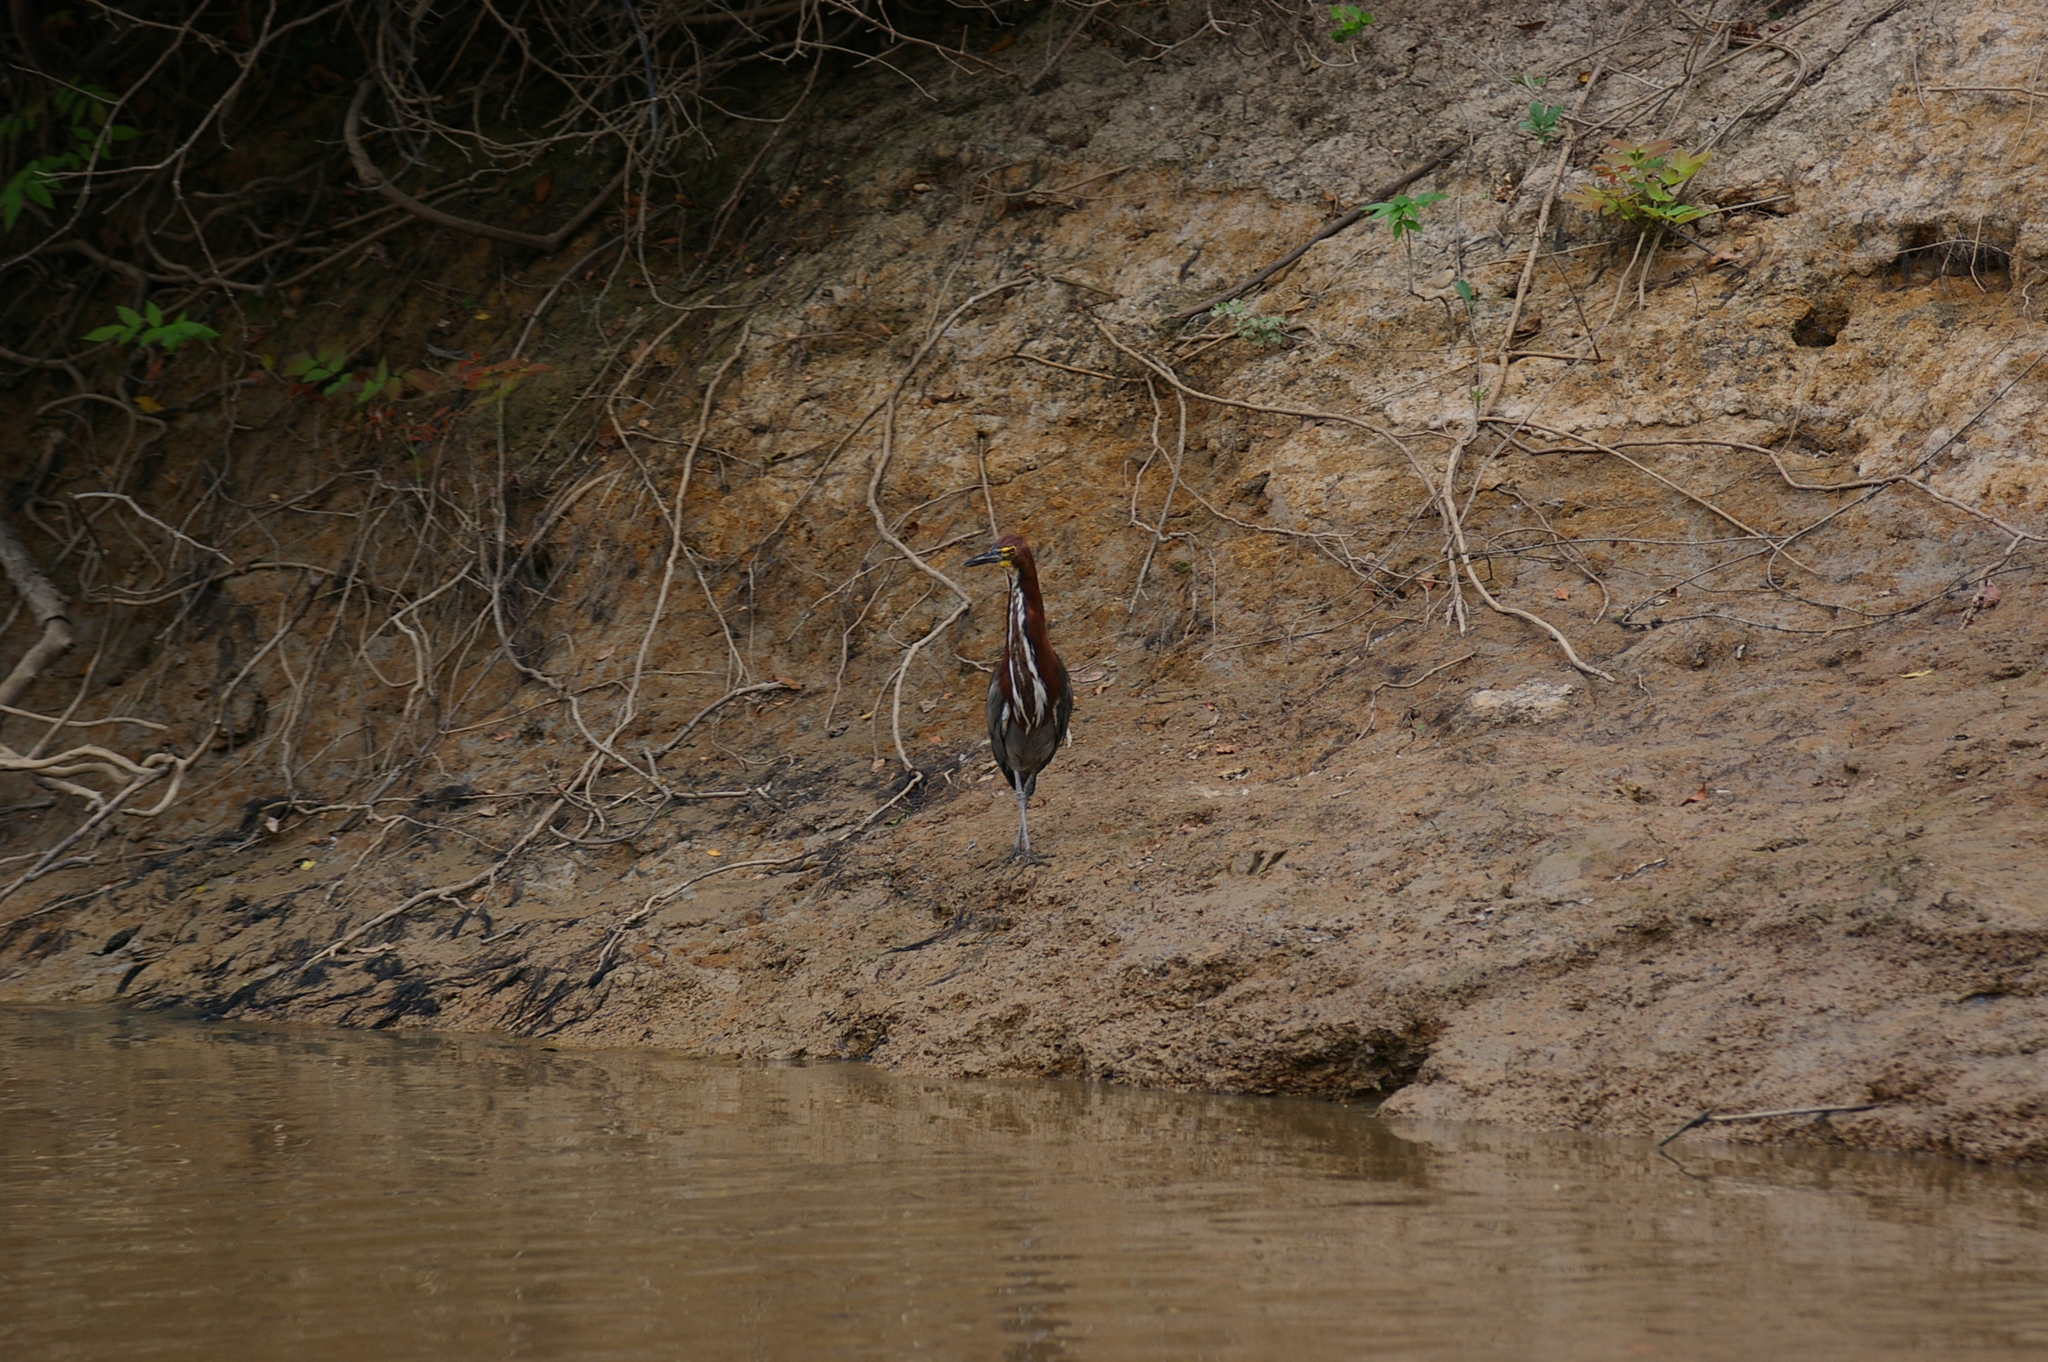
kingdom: Animalia
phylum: Chordata
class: Aves
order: Pelecaniformes
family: Ardeidae
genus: Tigrisoma
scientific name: Tigrisoma lineatum
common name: Rufescent tiger-heron
